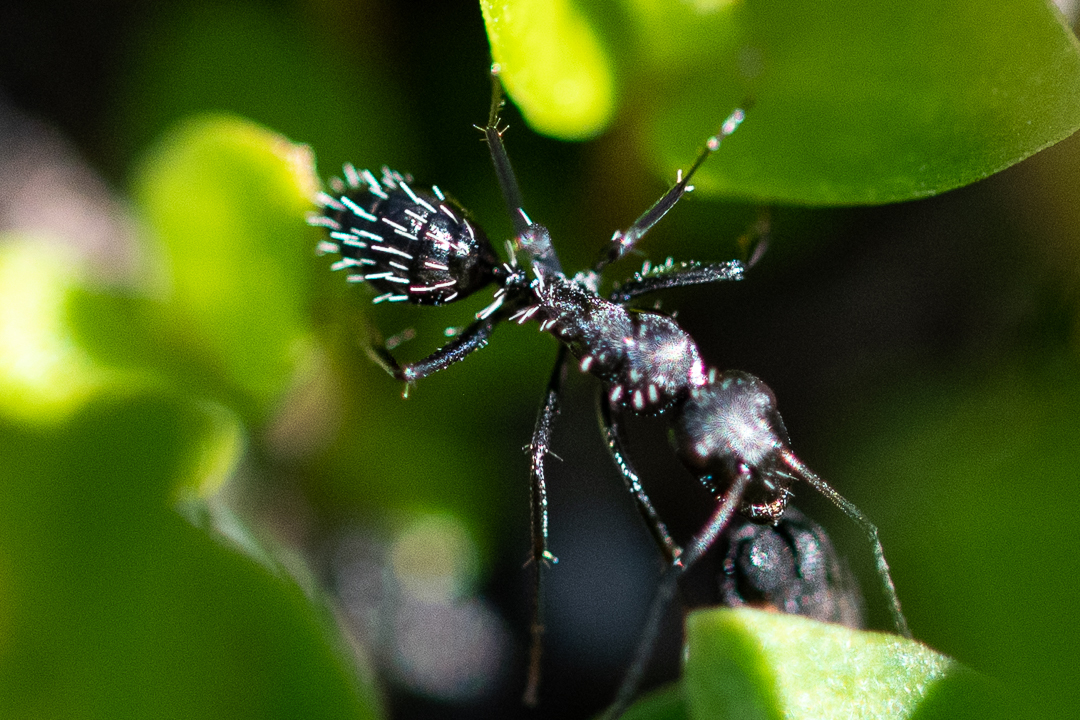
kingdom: Animalia
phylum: Arthropoda
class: Insecta
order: Hymenoptera
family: Formicidae
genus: Camponotus
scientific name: Camponotus niveosetosus
